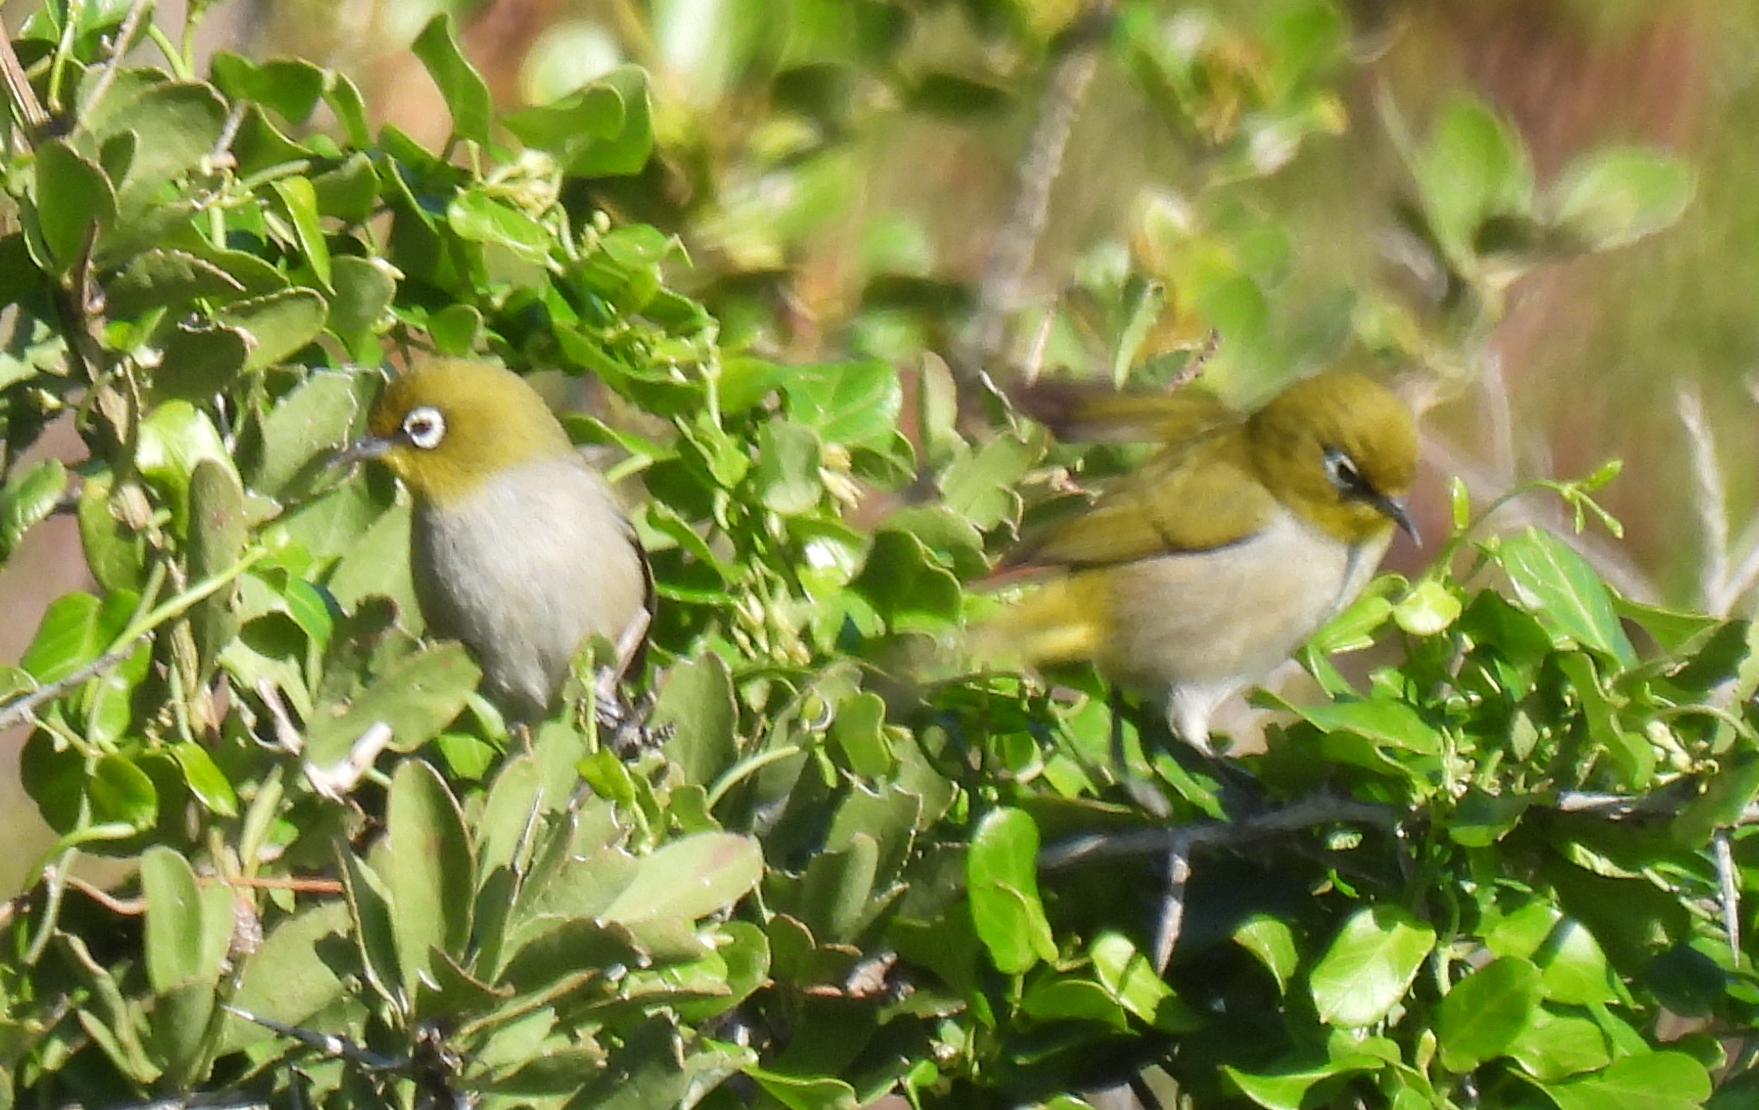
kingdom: Animalia
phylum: Chordata
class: Aves
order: Passeriformes
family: Zosteropidae
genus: Zosterops
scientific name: Zosterops virens
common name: Cape white-eye
